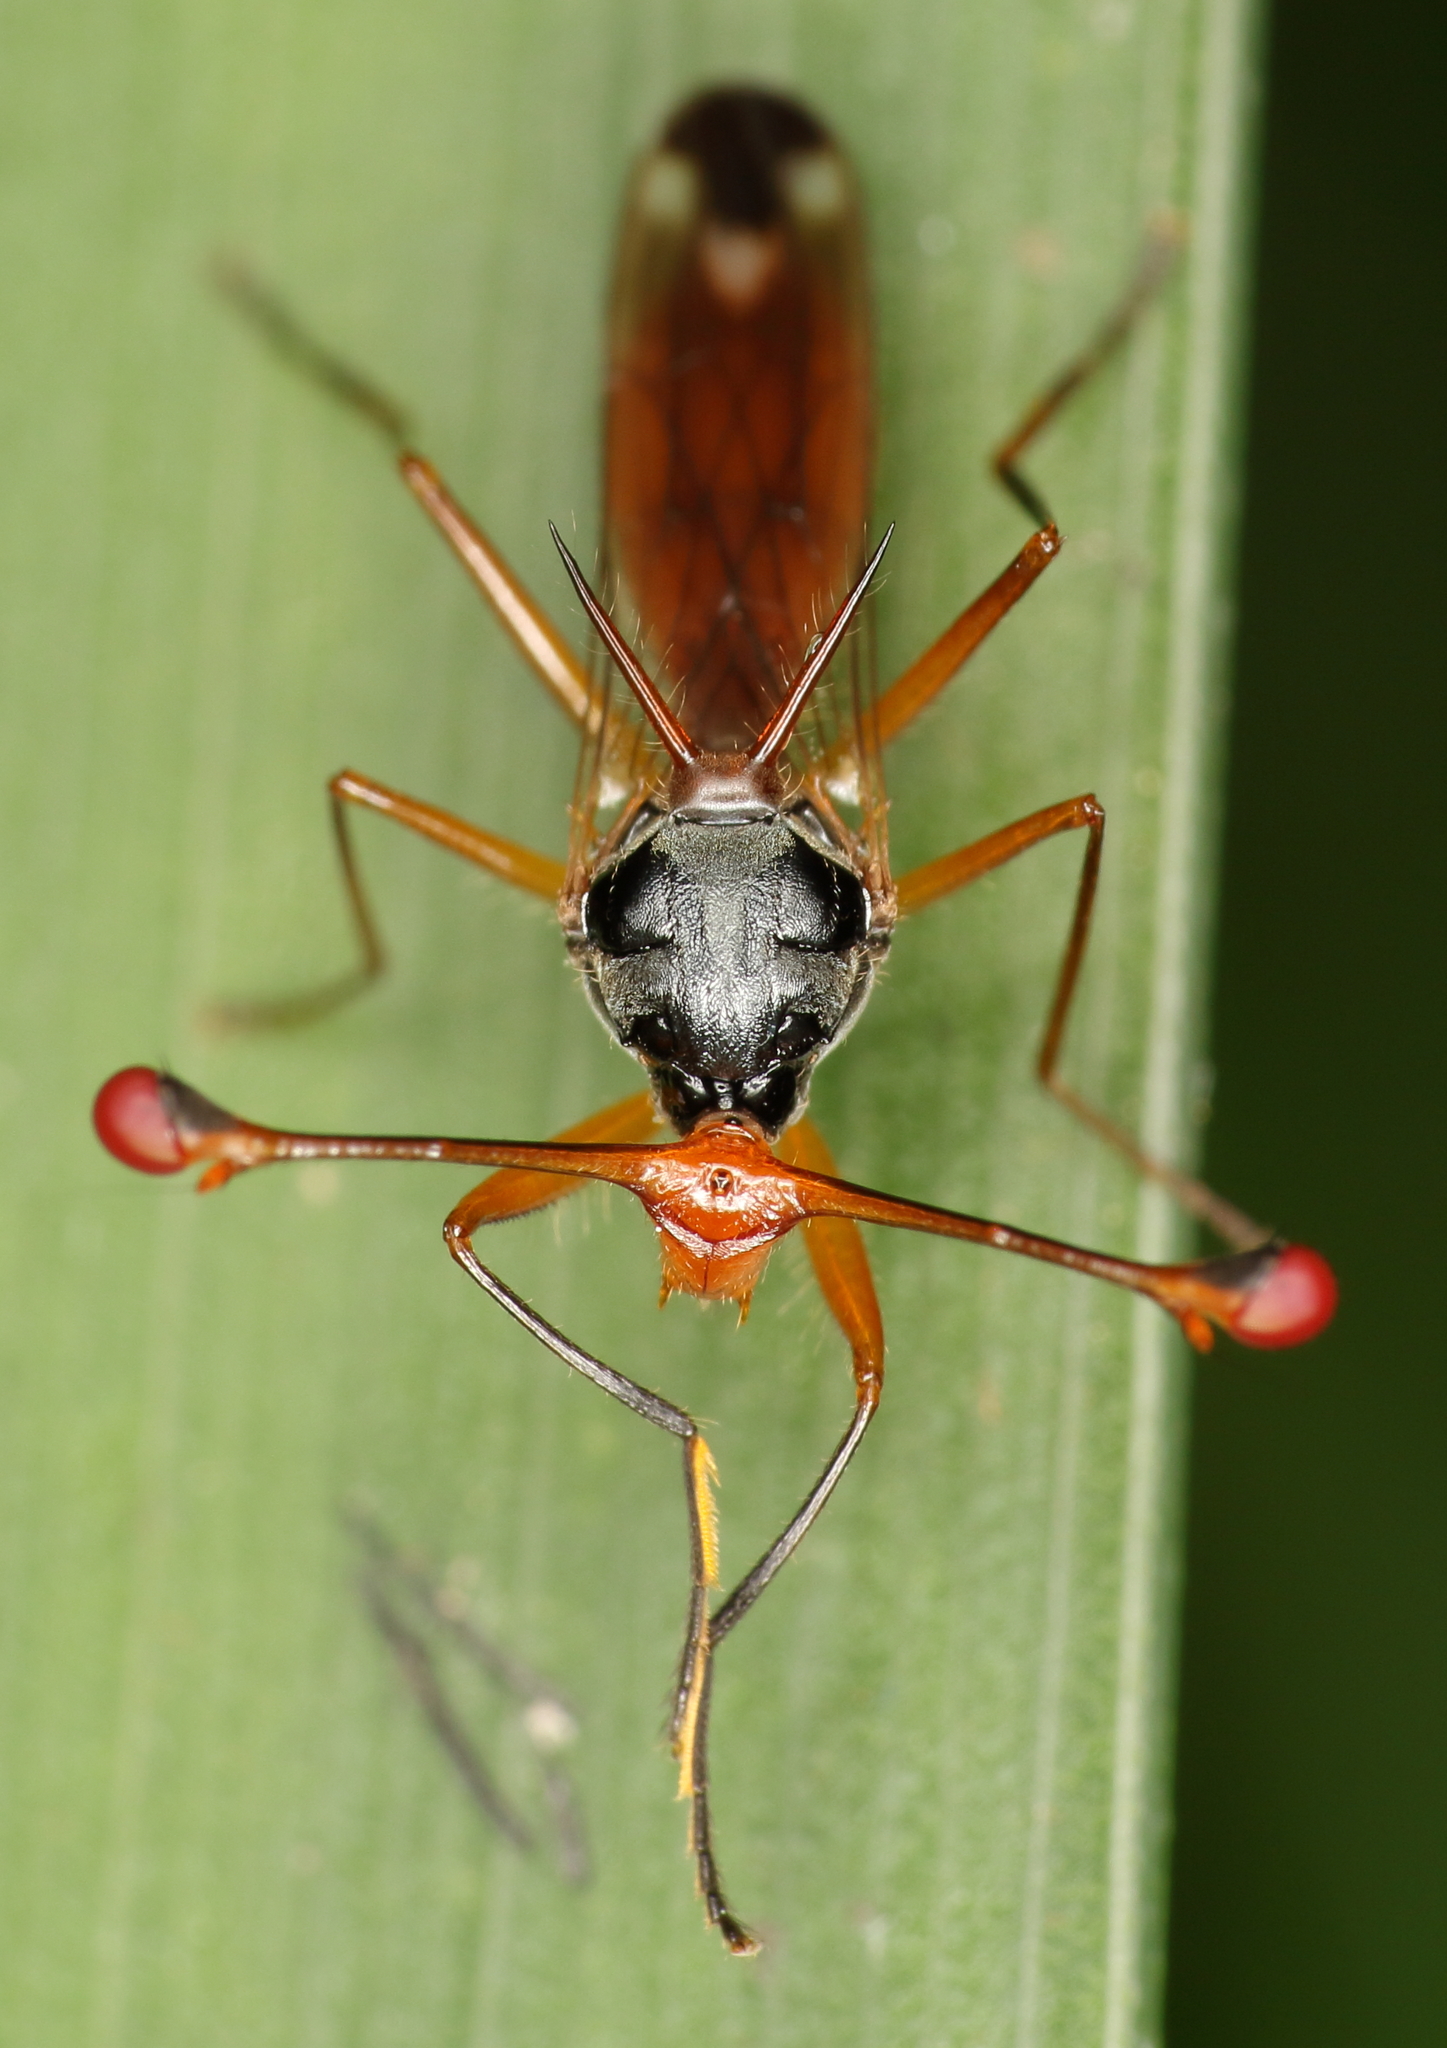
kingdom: Animalia
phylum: Arthropoda
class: Insecta
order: Diptera
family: Diopsidae
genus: Diopsis
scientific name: Diopsis stuckenbergi
